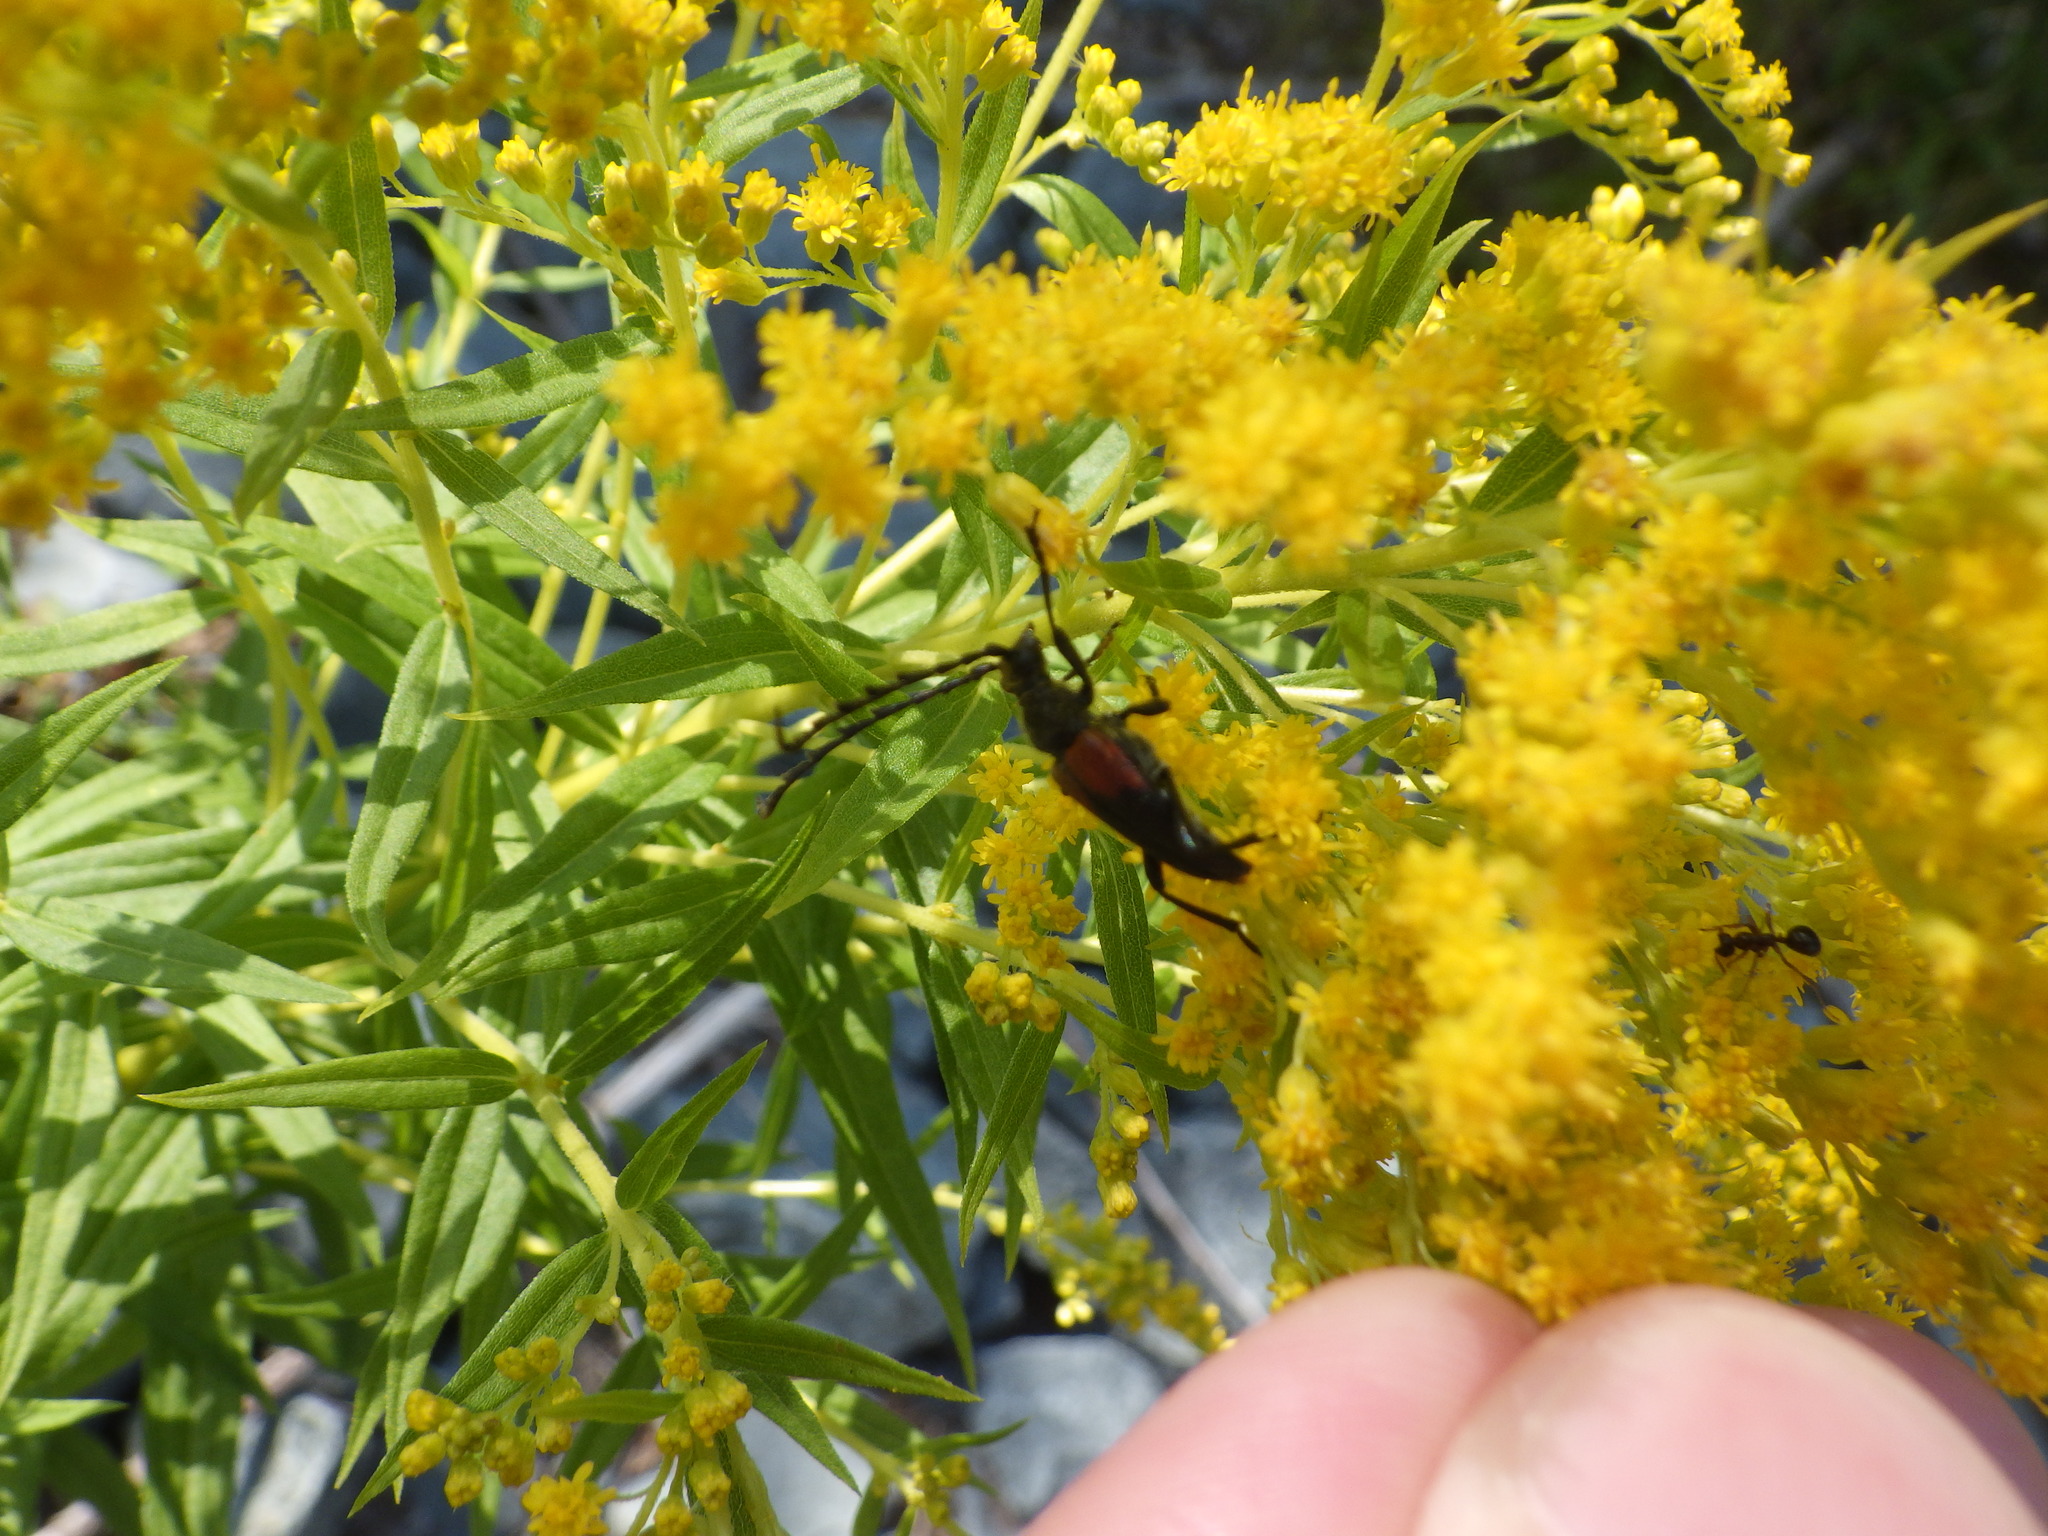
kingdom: Animalia
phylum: Arthropoda
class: Insecta
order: Coleoptera
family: Cerambycidae
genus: Stictoleptura
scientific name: Stictoleptura canadensis
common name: Red-shouldered pine borer
